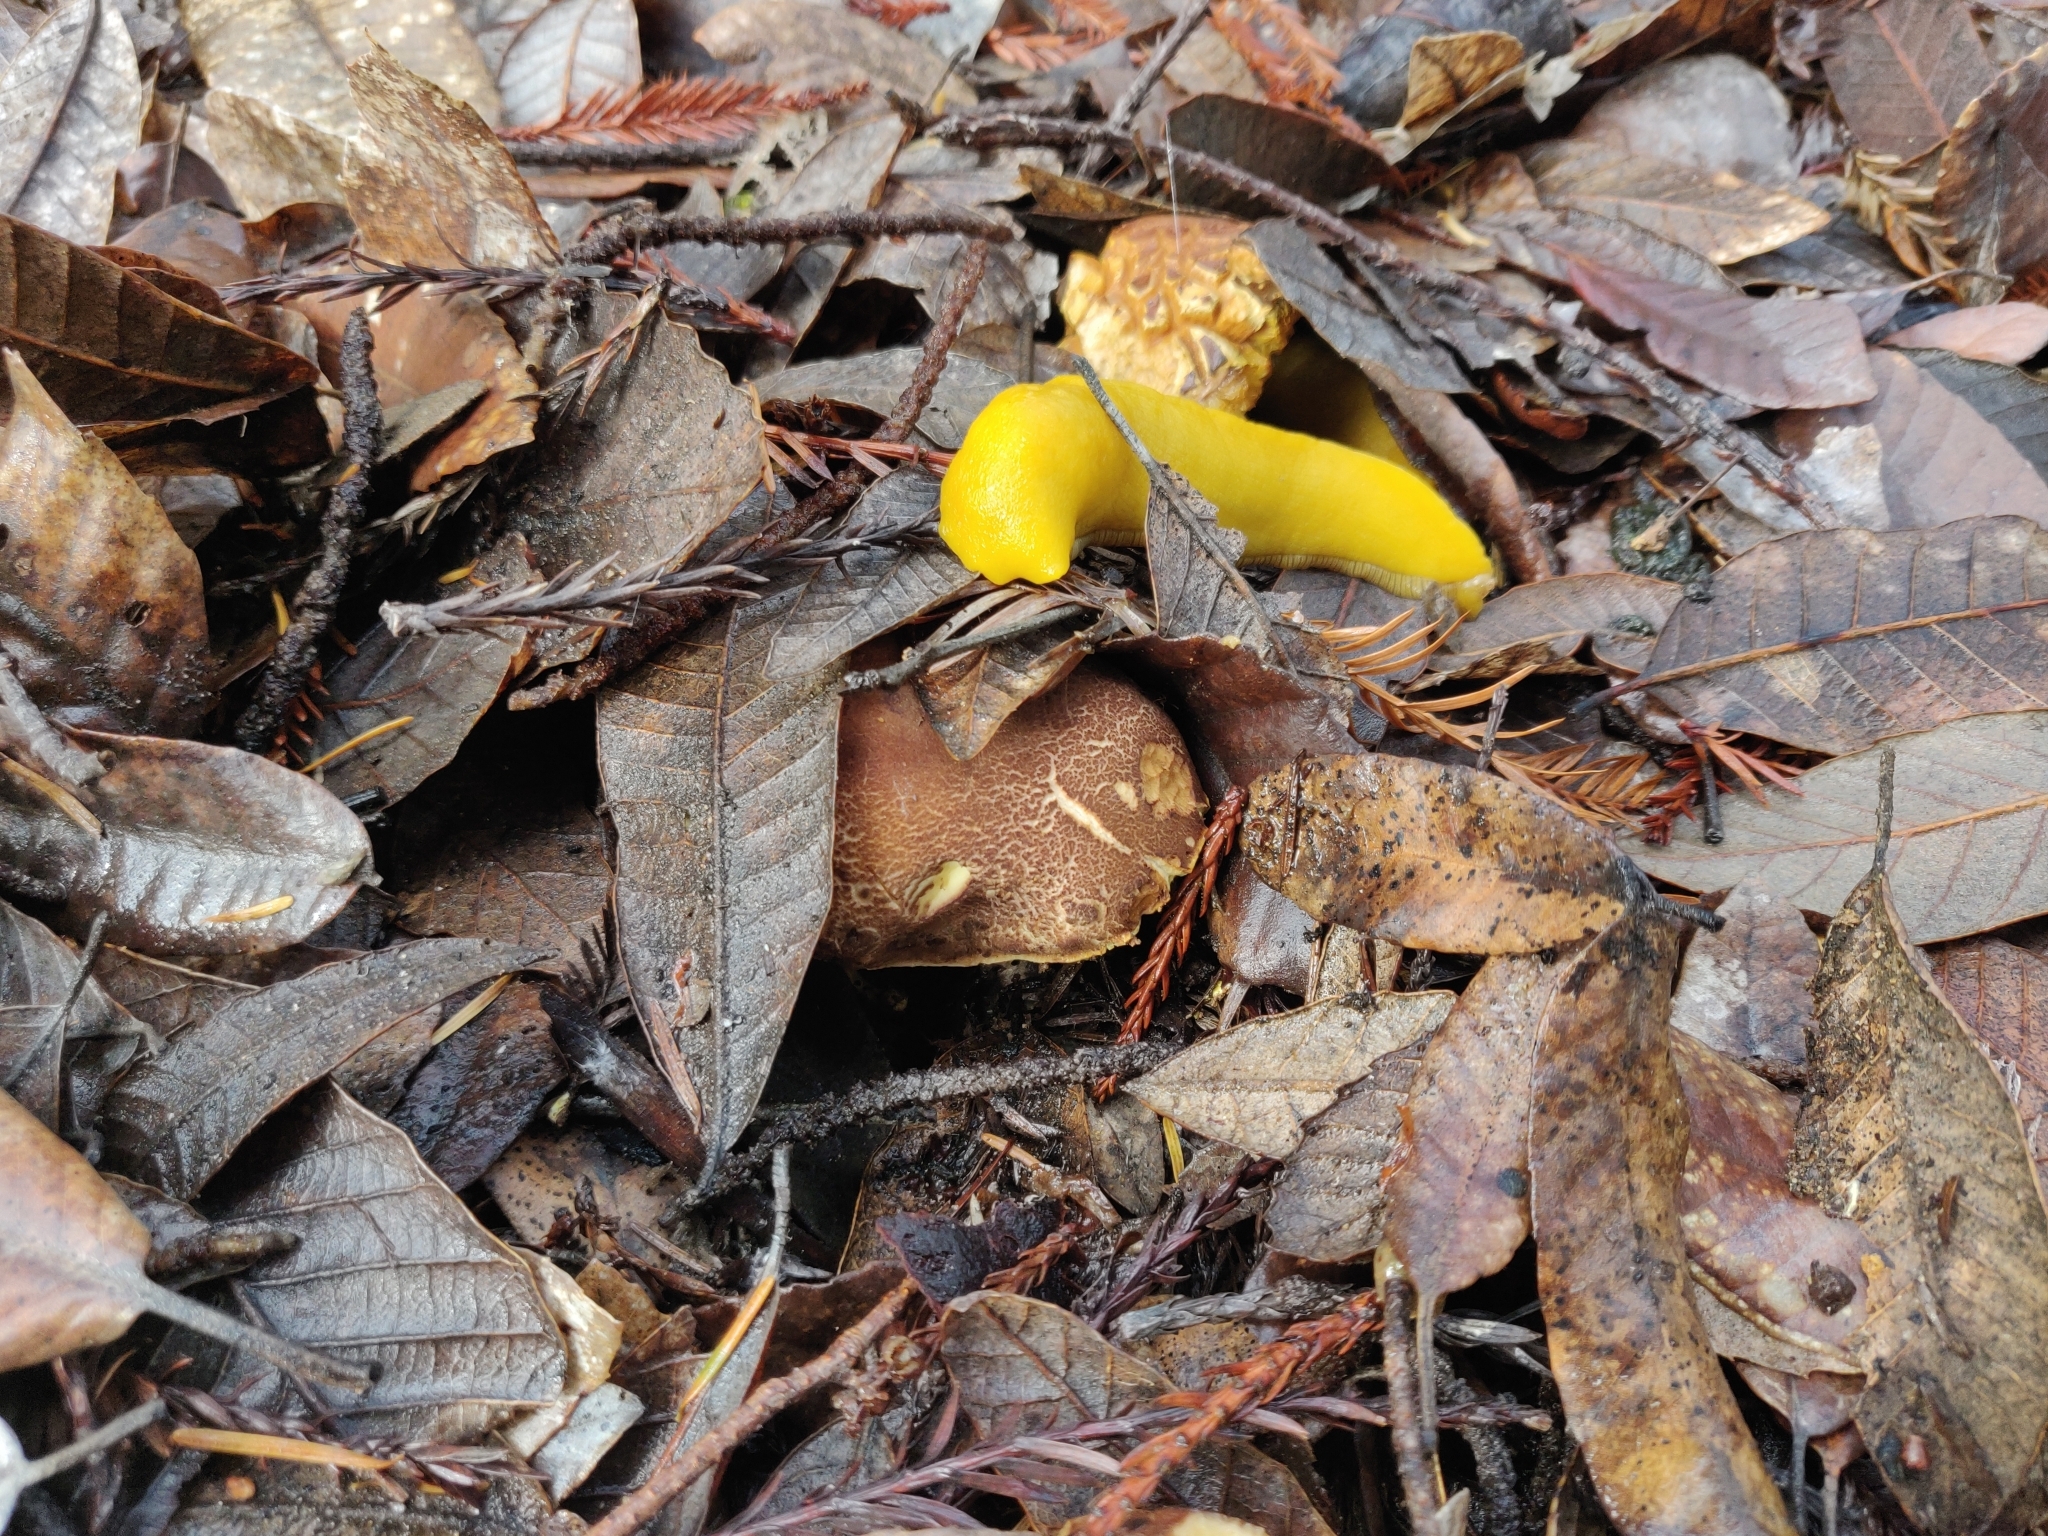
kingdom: Animalia
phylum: Mollusca
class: Gastropoda
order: Stylommatophora
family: Ariolimacidae
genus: Ariolimax
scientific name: Ariolimax californicus
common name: California banana slug
